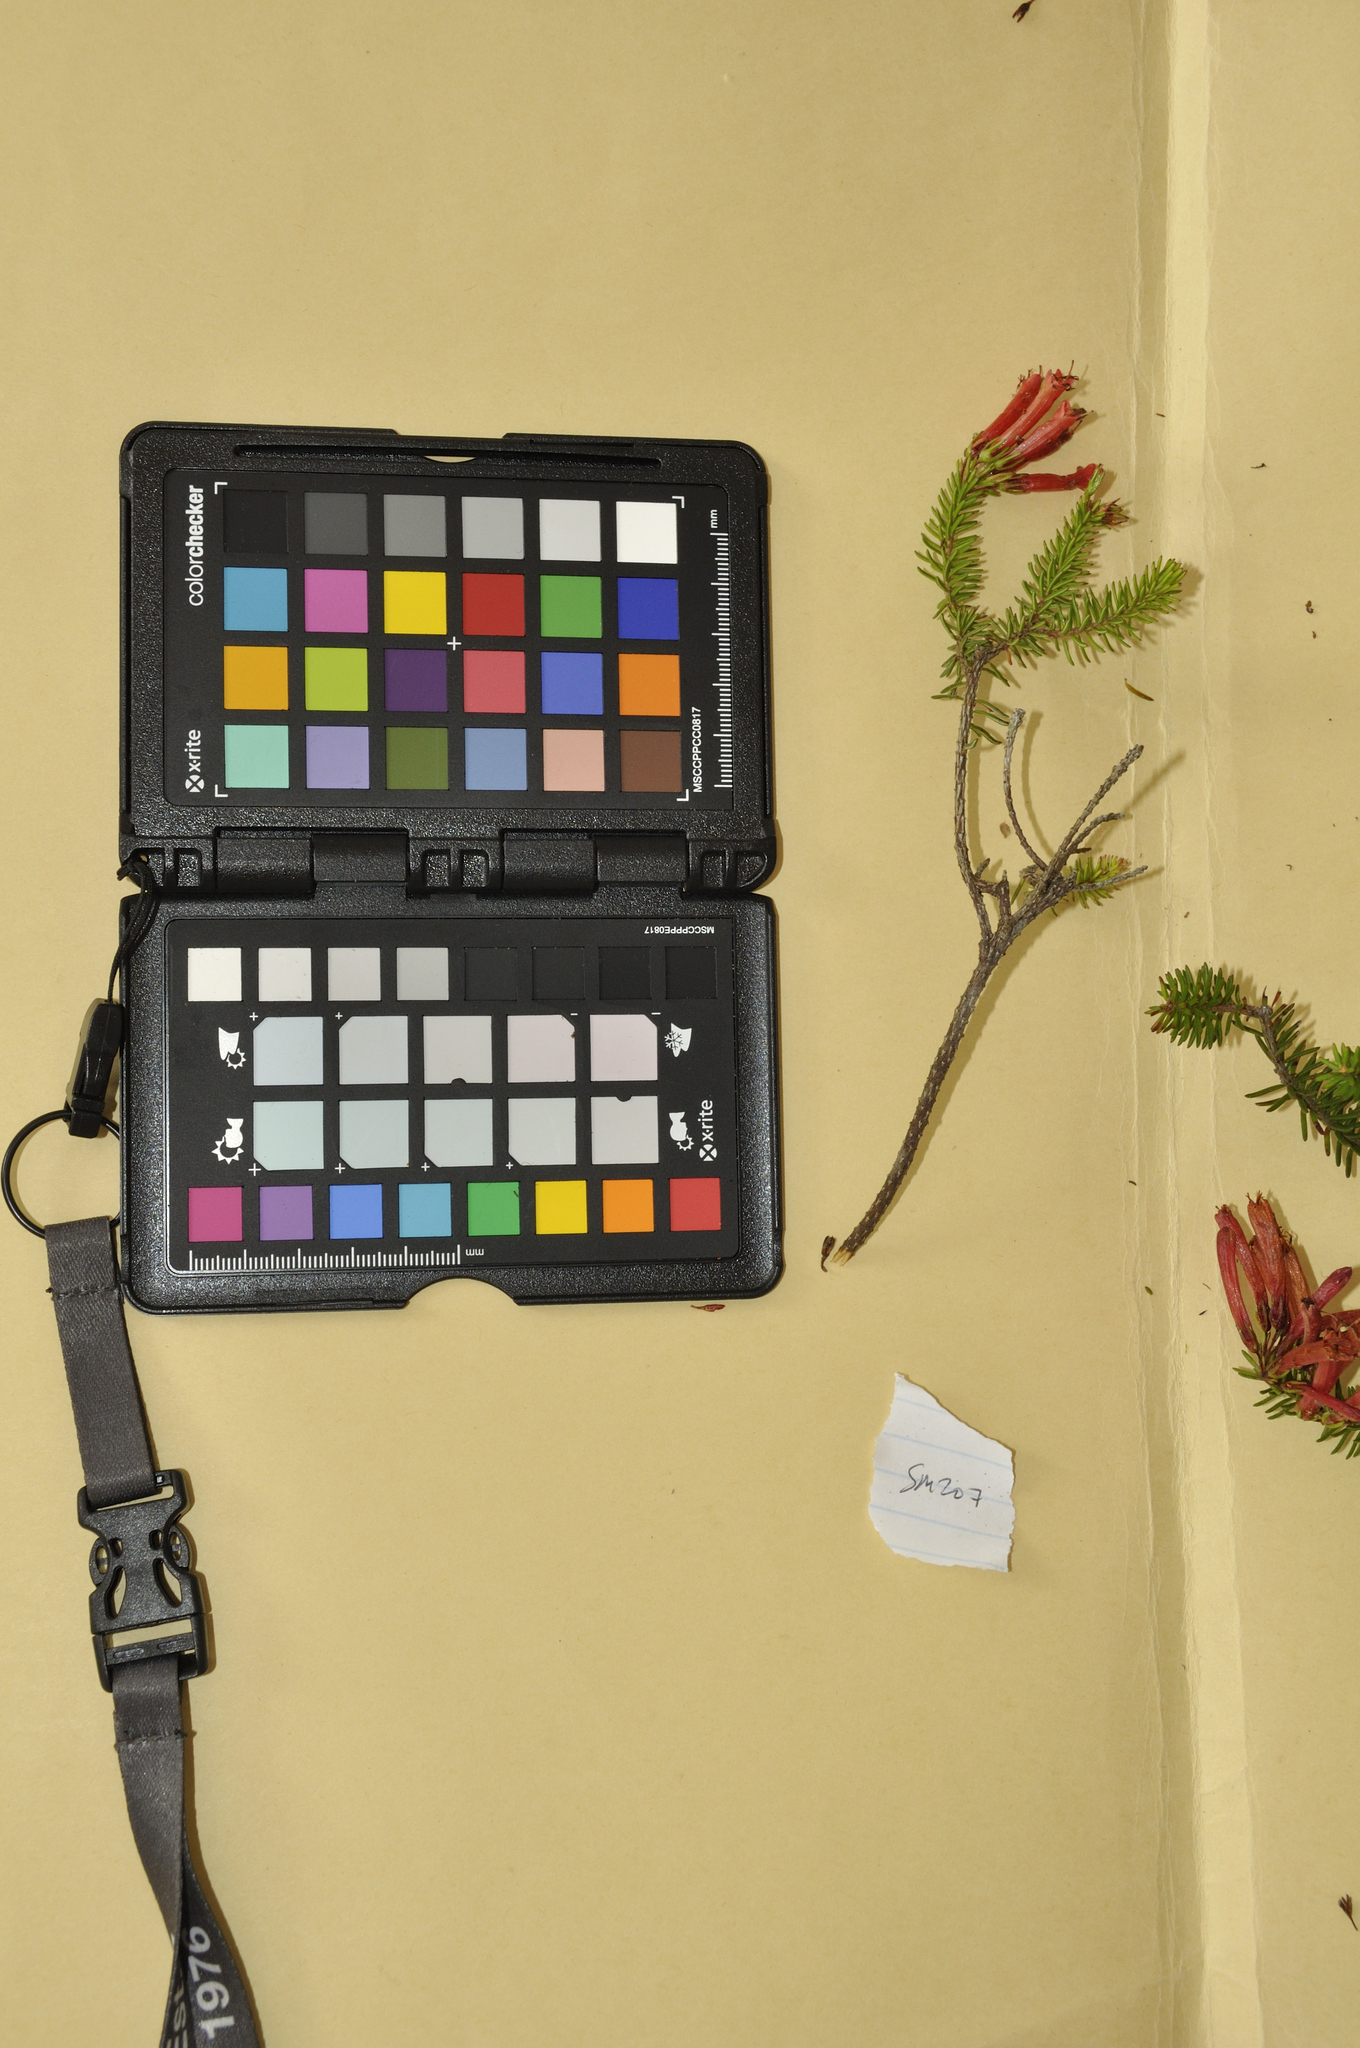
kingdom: Plantae
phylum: Tracheophyta
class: Magnoliopsida
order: Ericales
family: Ericaceae
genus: Erica
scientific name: Erica nevillei
